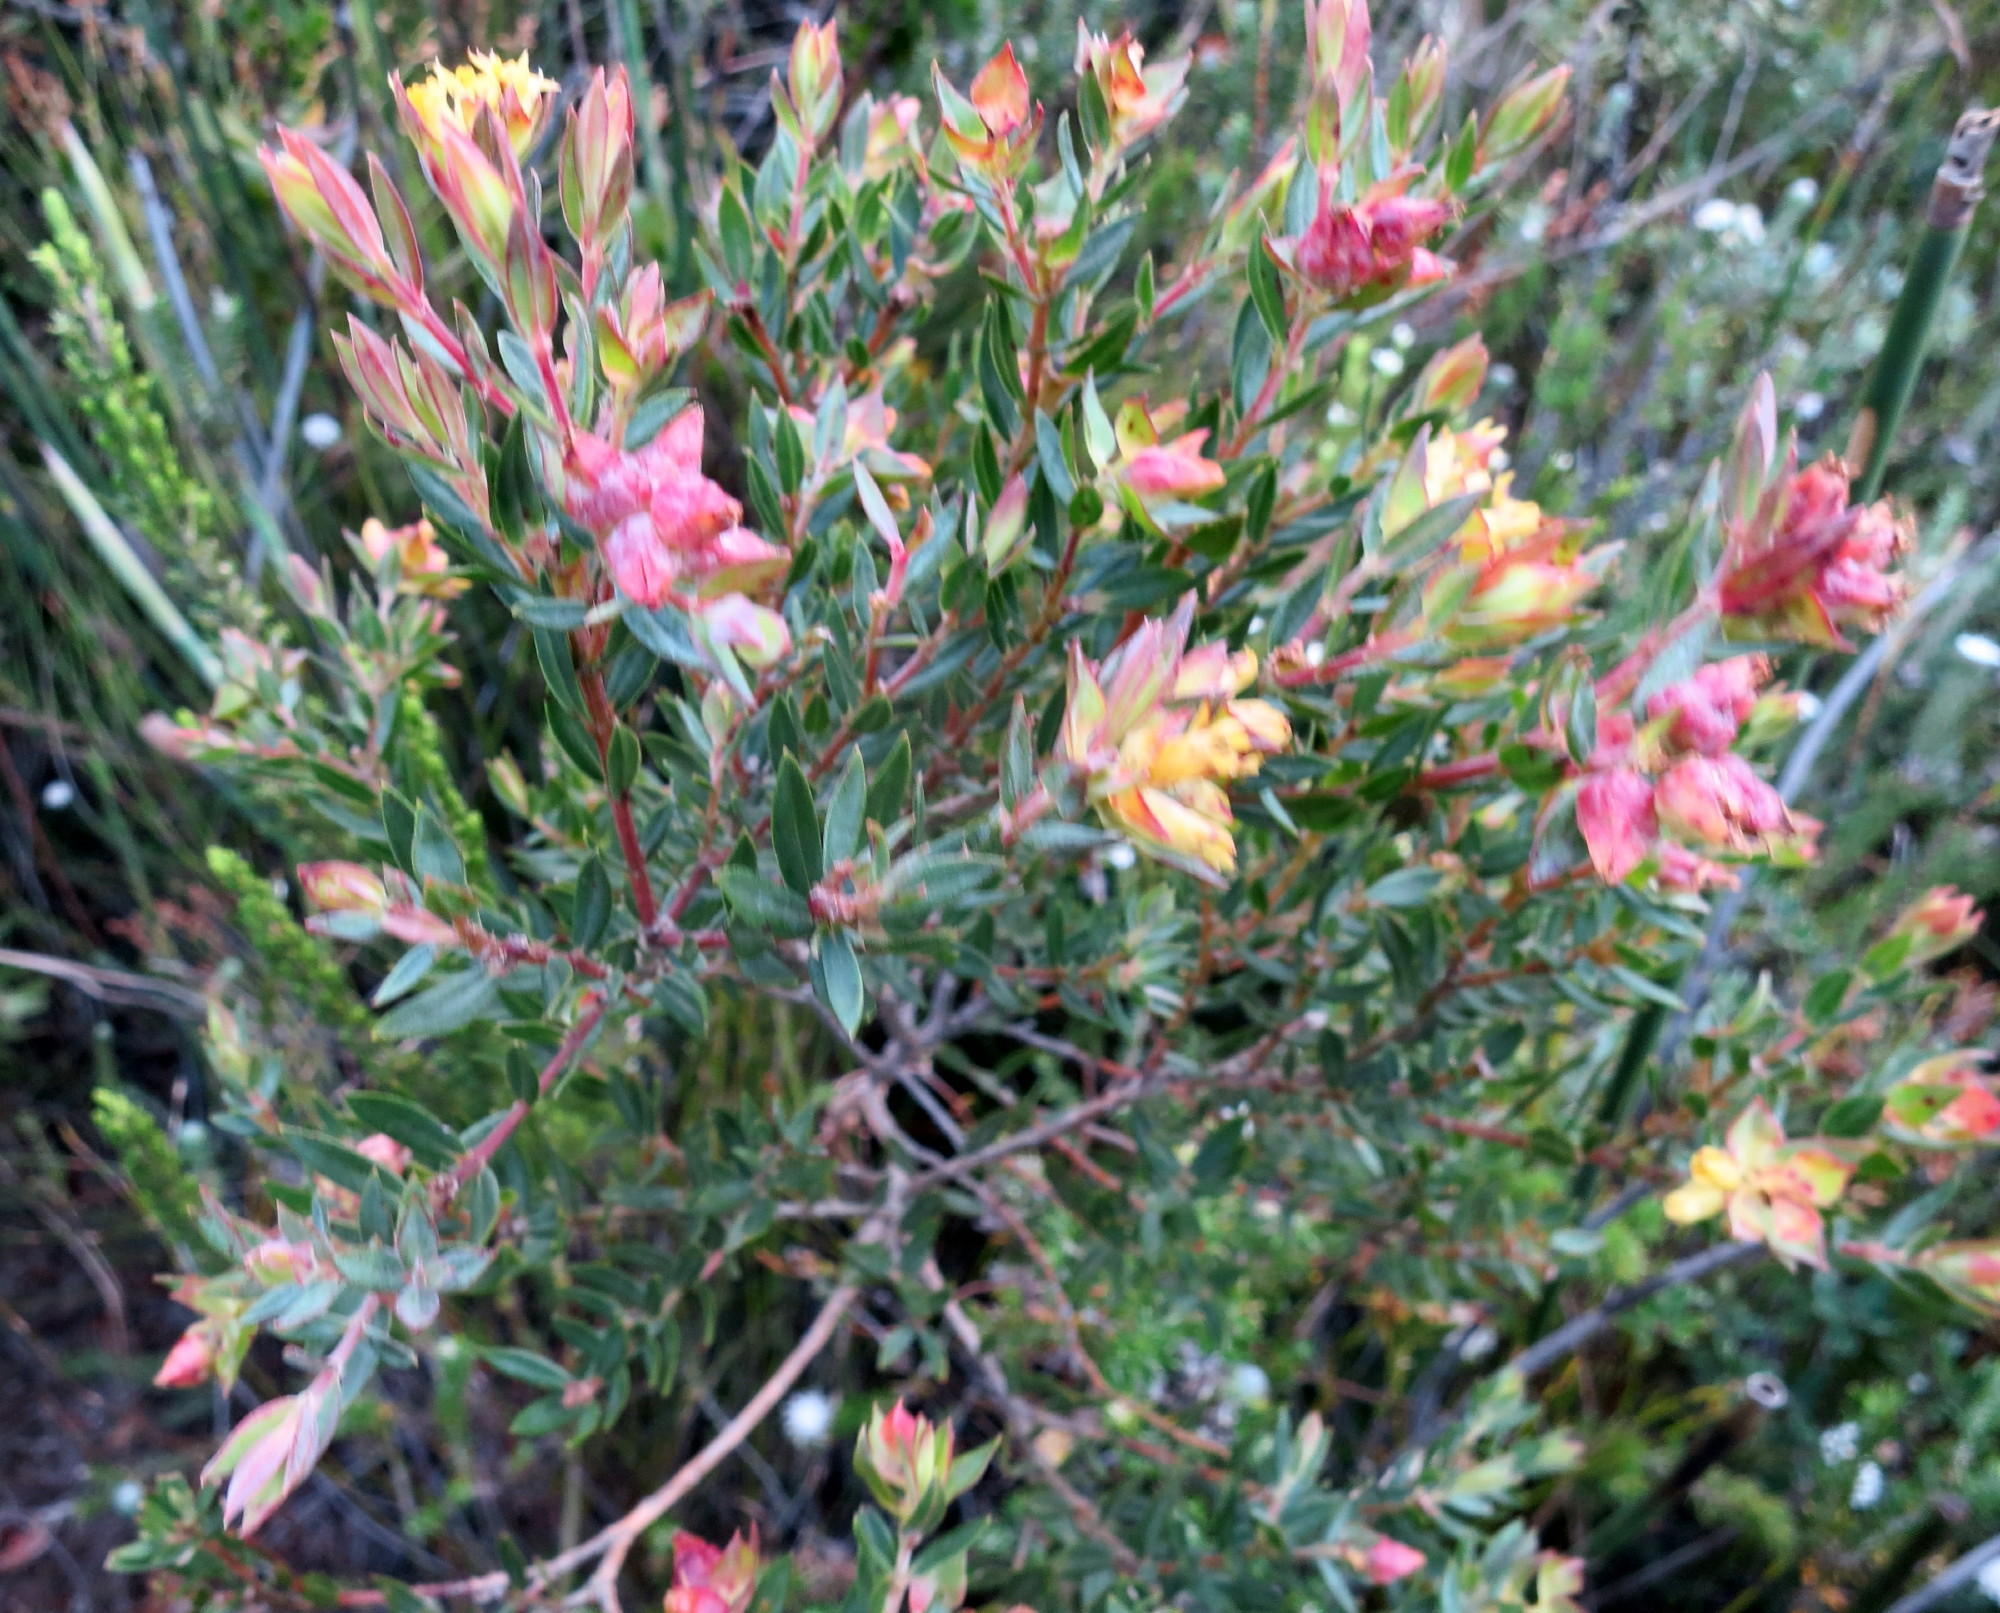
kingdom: Plantae
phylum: Tracheophyta
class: Magnoliopsida
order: Myrtales
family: Penaeaceae
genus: Penaea
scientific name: Penaea acutifolia
